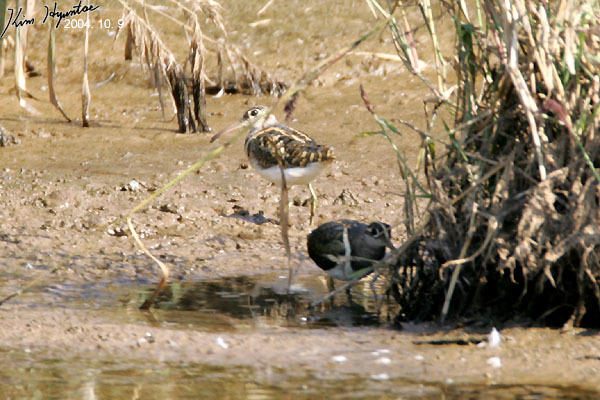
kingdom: Animalia
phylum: Chordata
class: Aves
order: Charadriiformes
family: Rostratulidae
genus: Rostratula
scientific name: Rostratula benghalensis
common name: Greater painted-snipe
